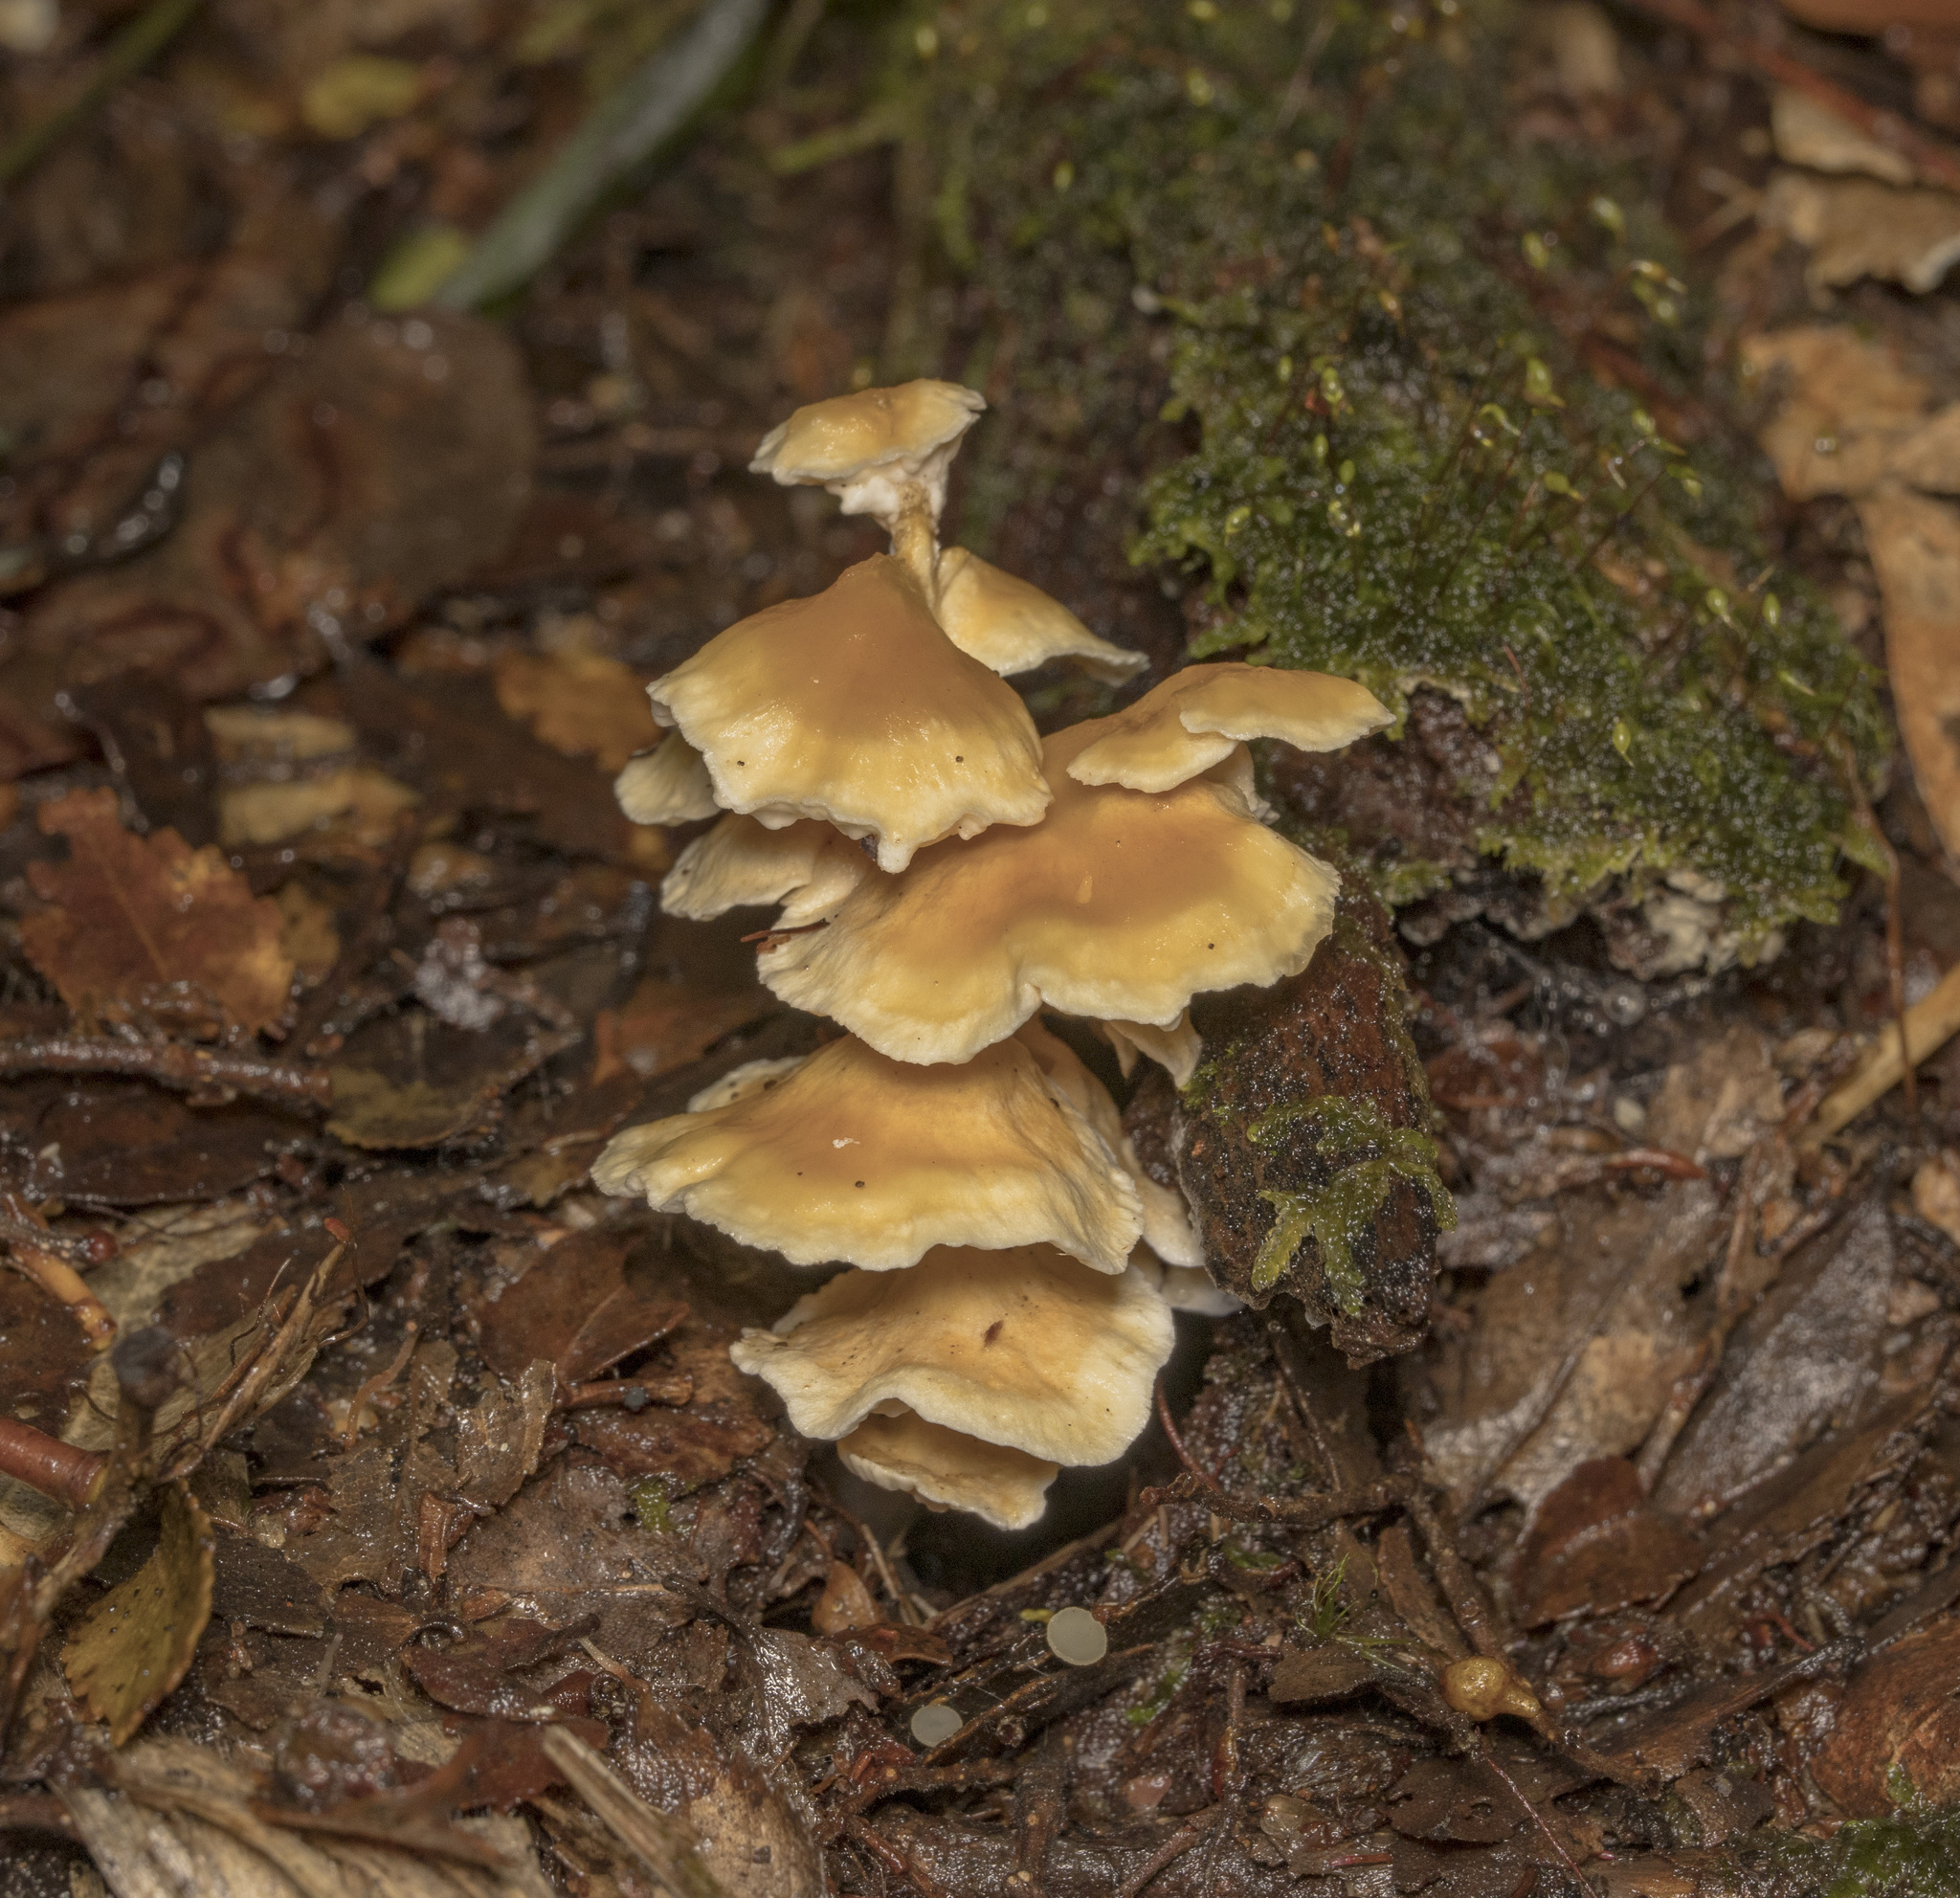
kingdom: Fungi
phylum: Basidiomycota
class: Agaricomycetes
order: Amylocorticiales
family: Amylocorticiaceae
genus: Podoserpula
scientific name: Podoserpula aliweni
